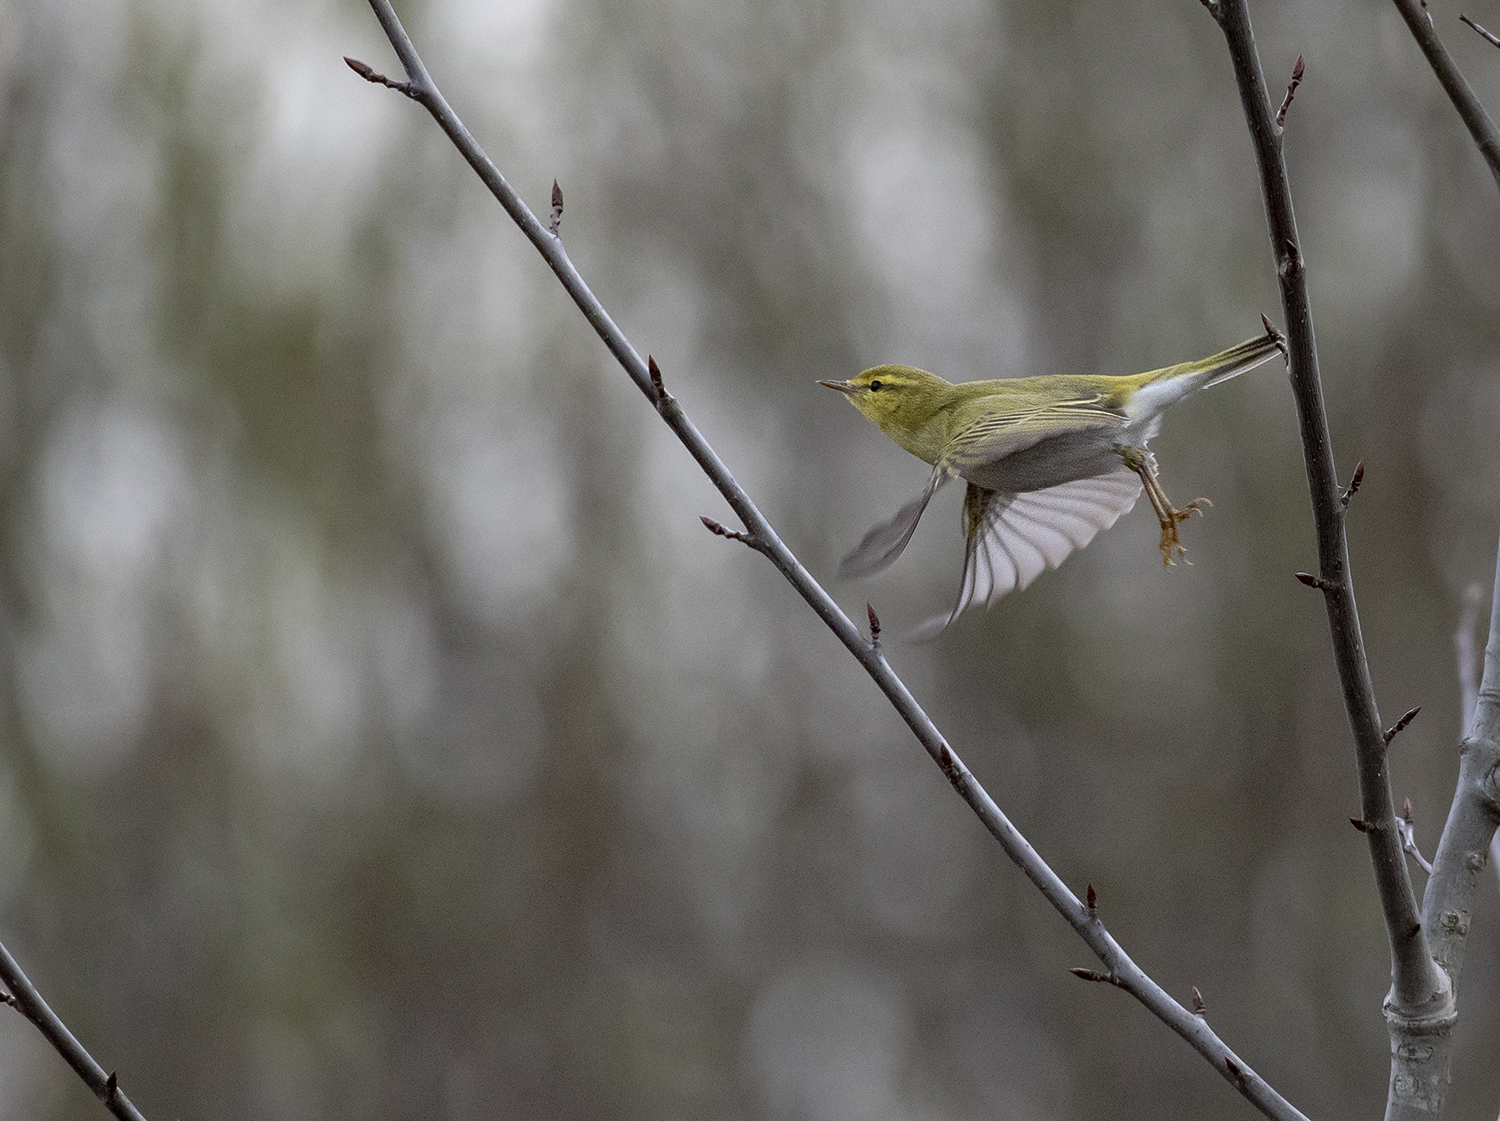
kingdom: Animalia
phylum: Chordata
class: Aves
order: Passeriformes
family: Phylloscopidae
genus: Phylloscopus
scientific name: Phylloscopus sibillatrix
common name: Wood warbler
